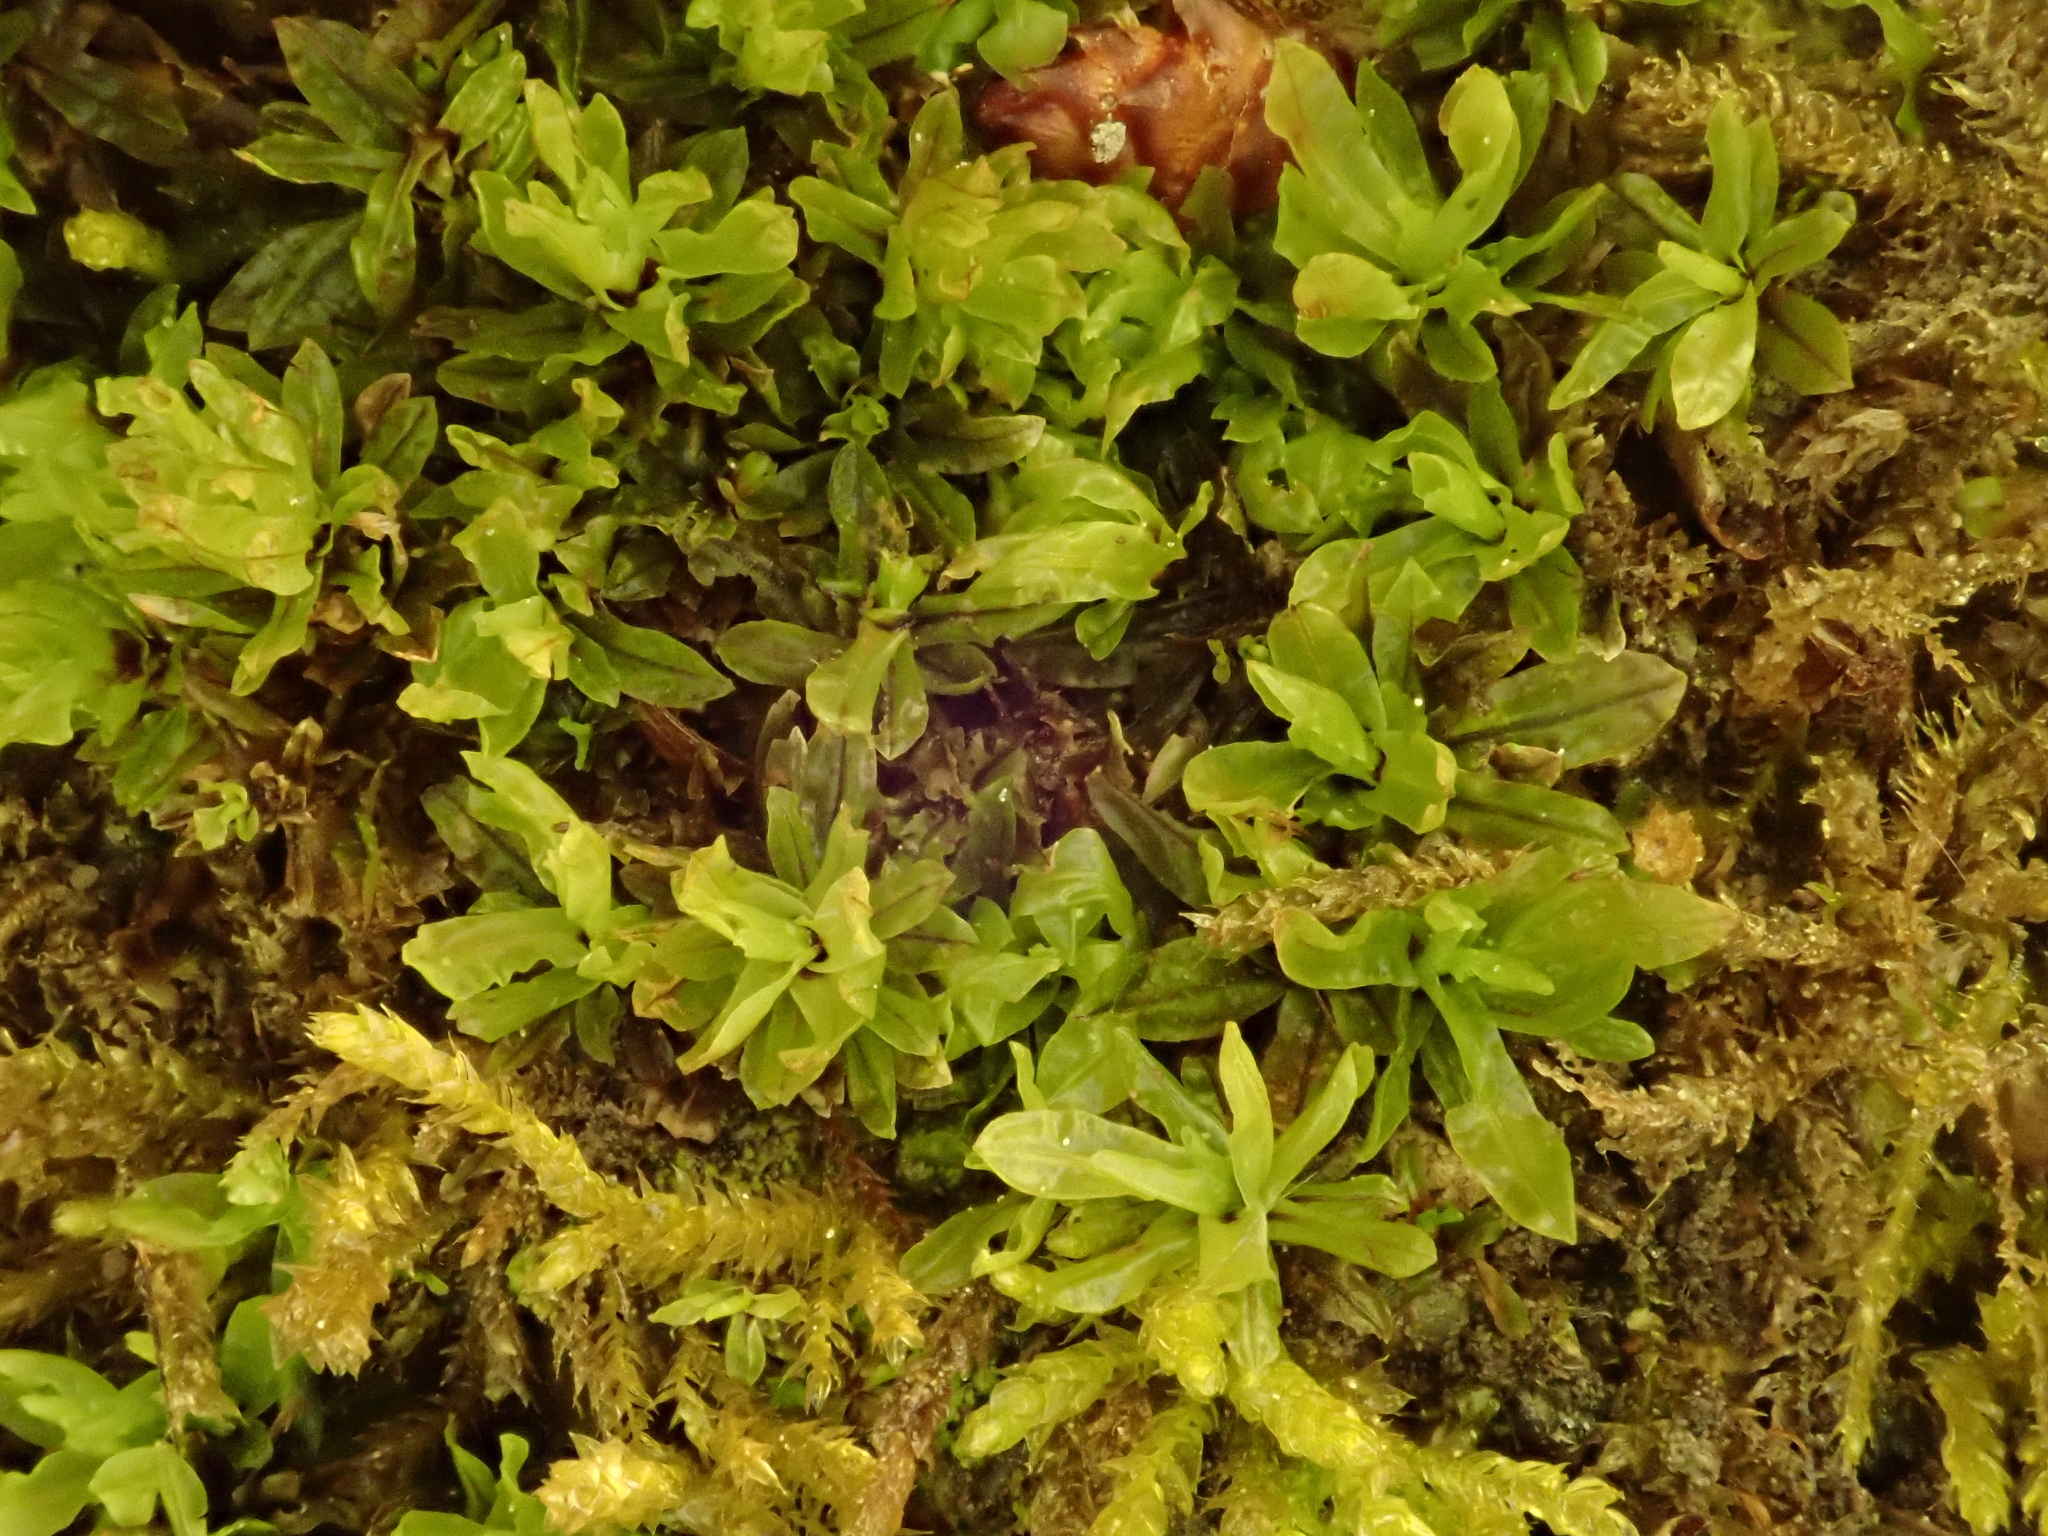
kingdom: Plantae
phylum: Bryophyta
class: Bryopsida
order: Encalyptales
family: Encalyptaceae
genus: Encalypta
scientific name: Encalypta streptocarpa
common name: Spiral extinguisher-moss
